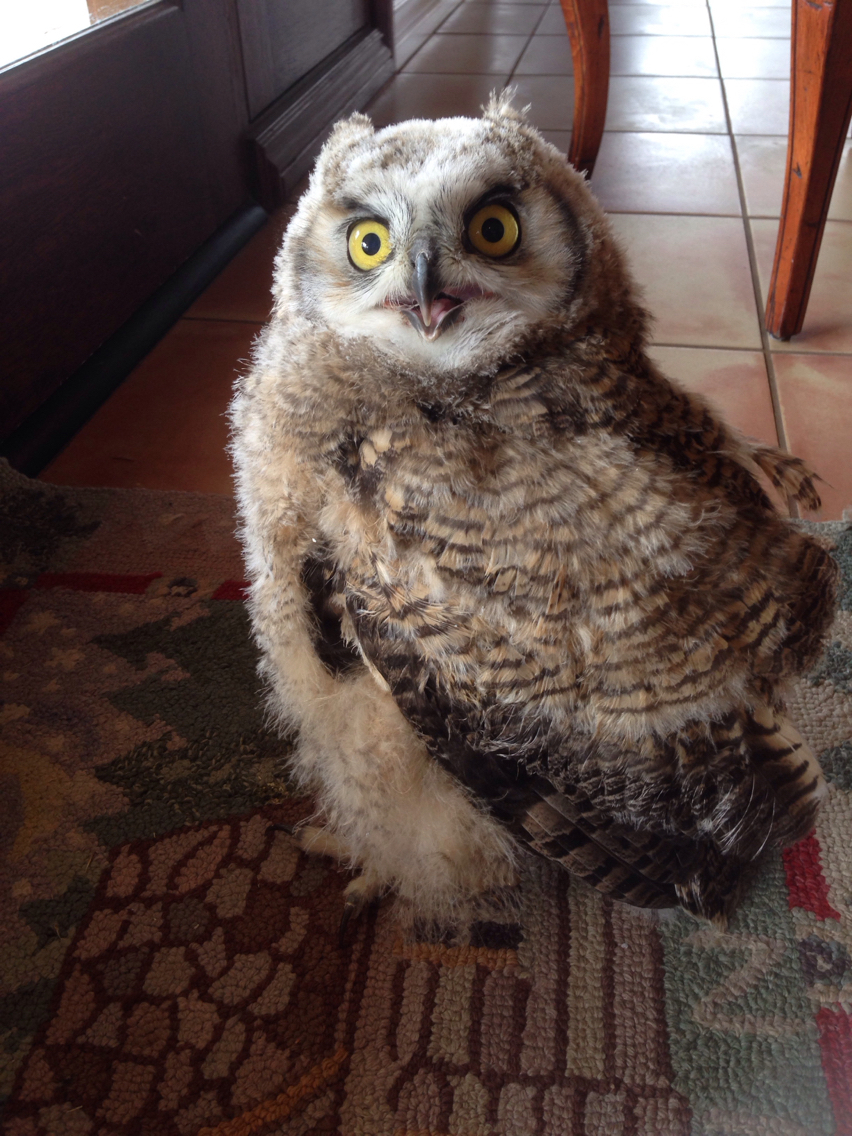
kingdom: Animalia
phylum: Chordata
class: Aves
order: Strigiformes
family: Strigidae
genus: Bubo
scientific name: Bubo virginianus
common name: Great horned owl
